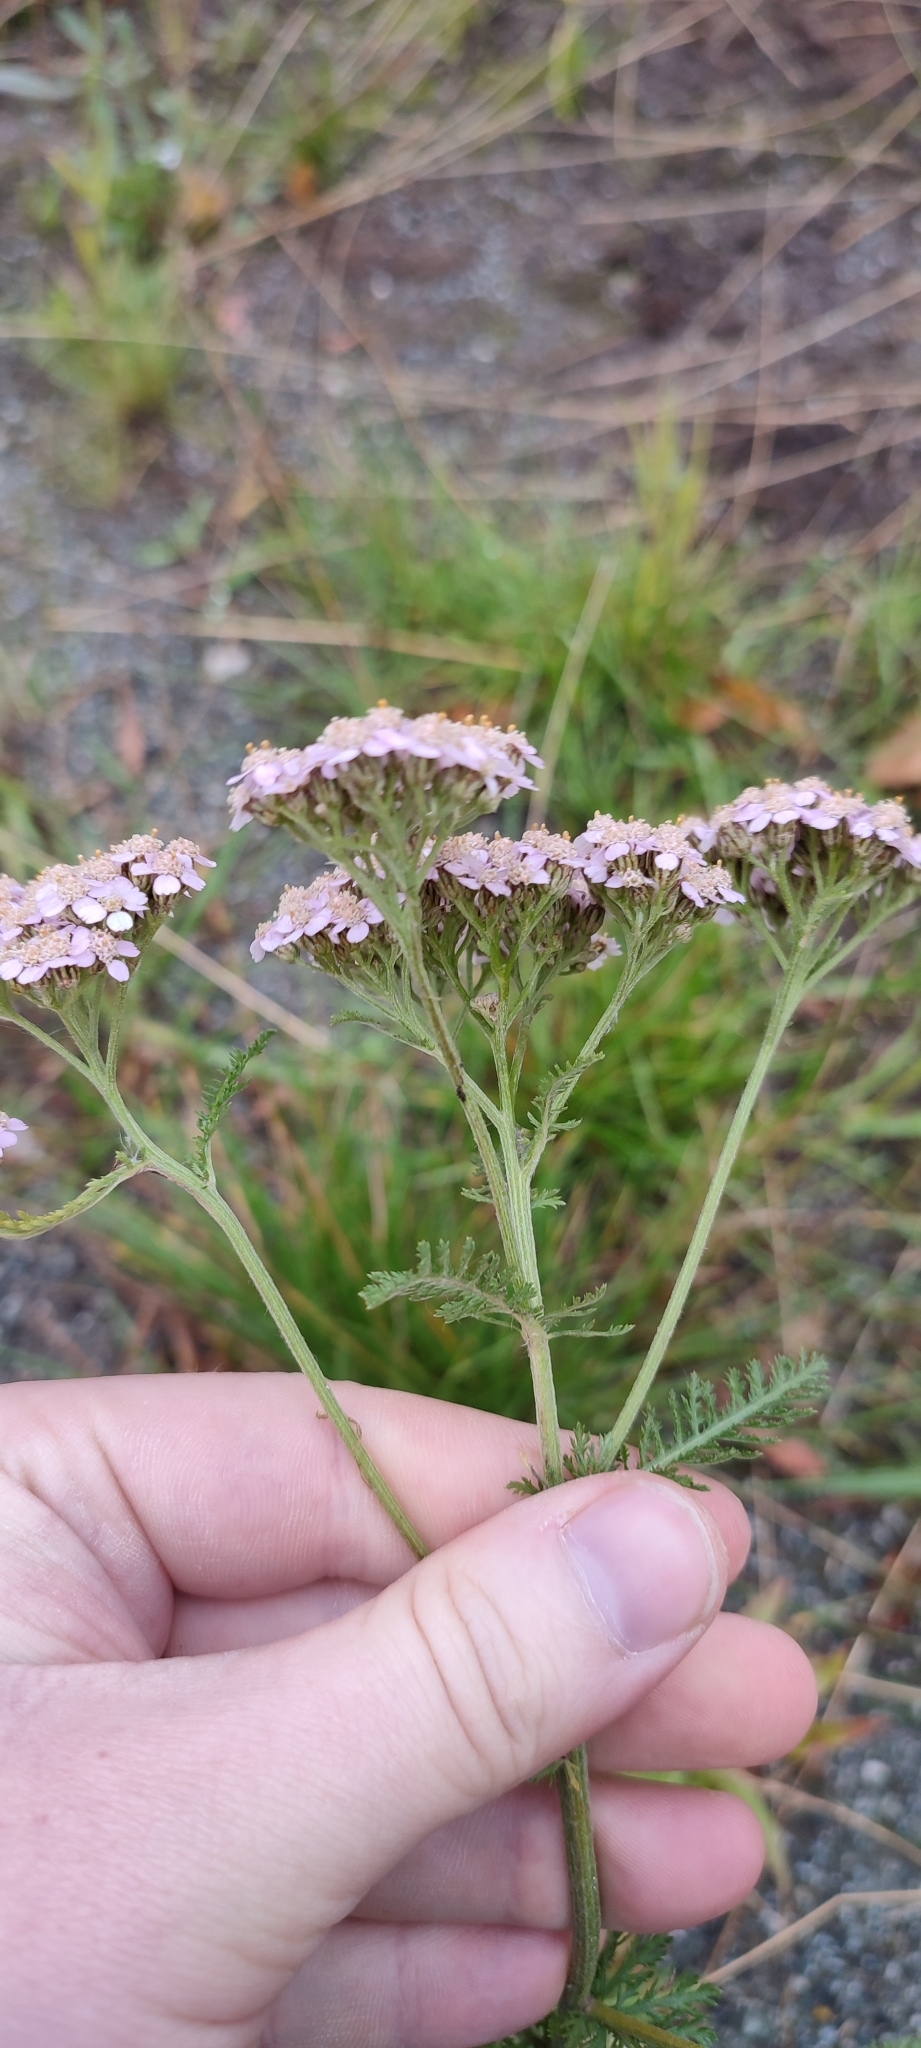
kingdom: Plantae
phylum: Tracheophyta
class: Magnoliopsida
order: Asterales
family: Asteraceae
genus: Achillea
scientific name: Achillea asiatica
